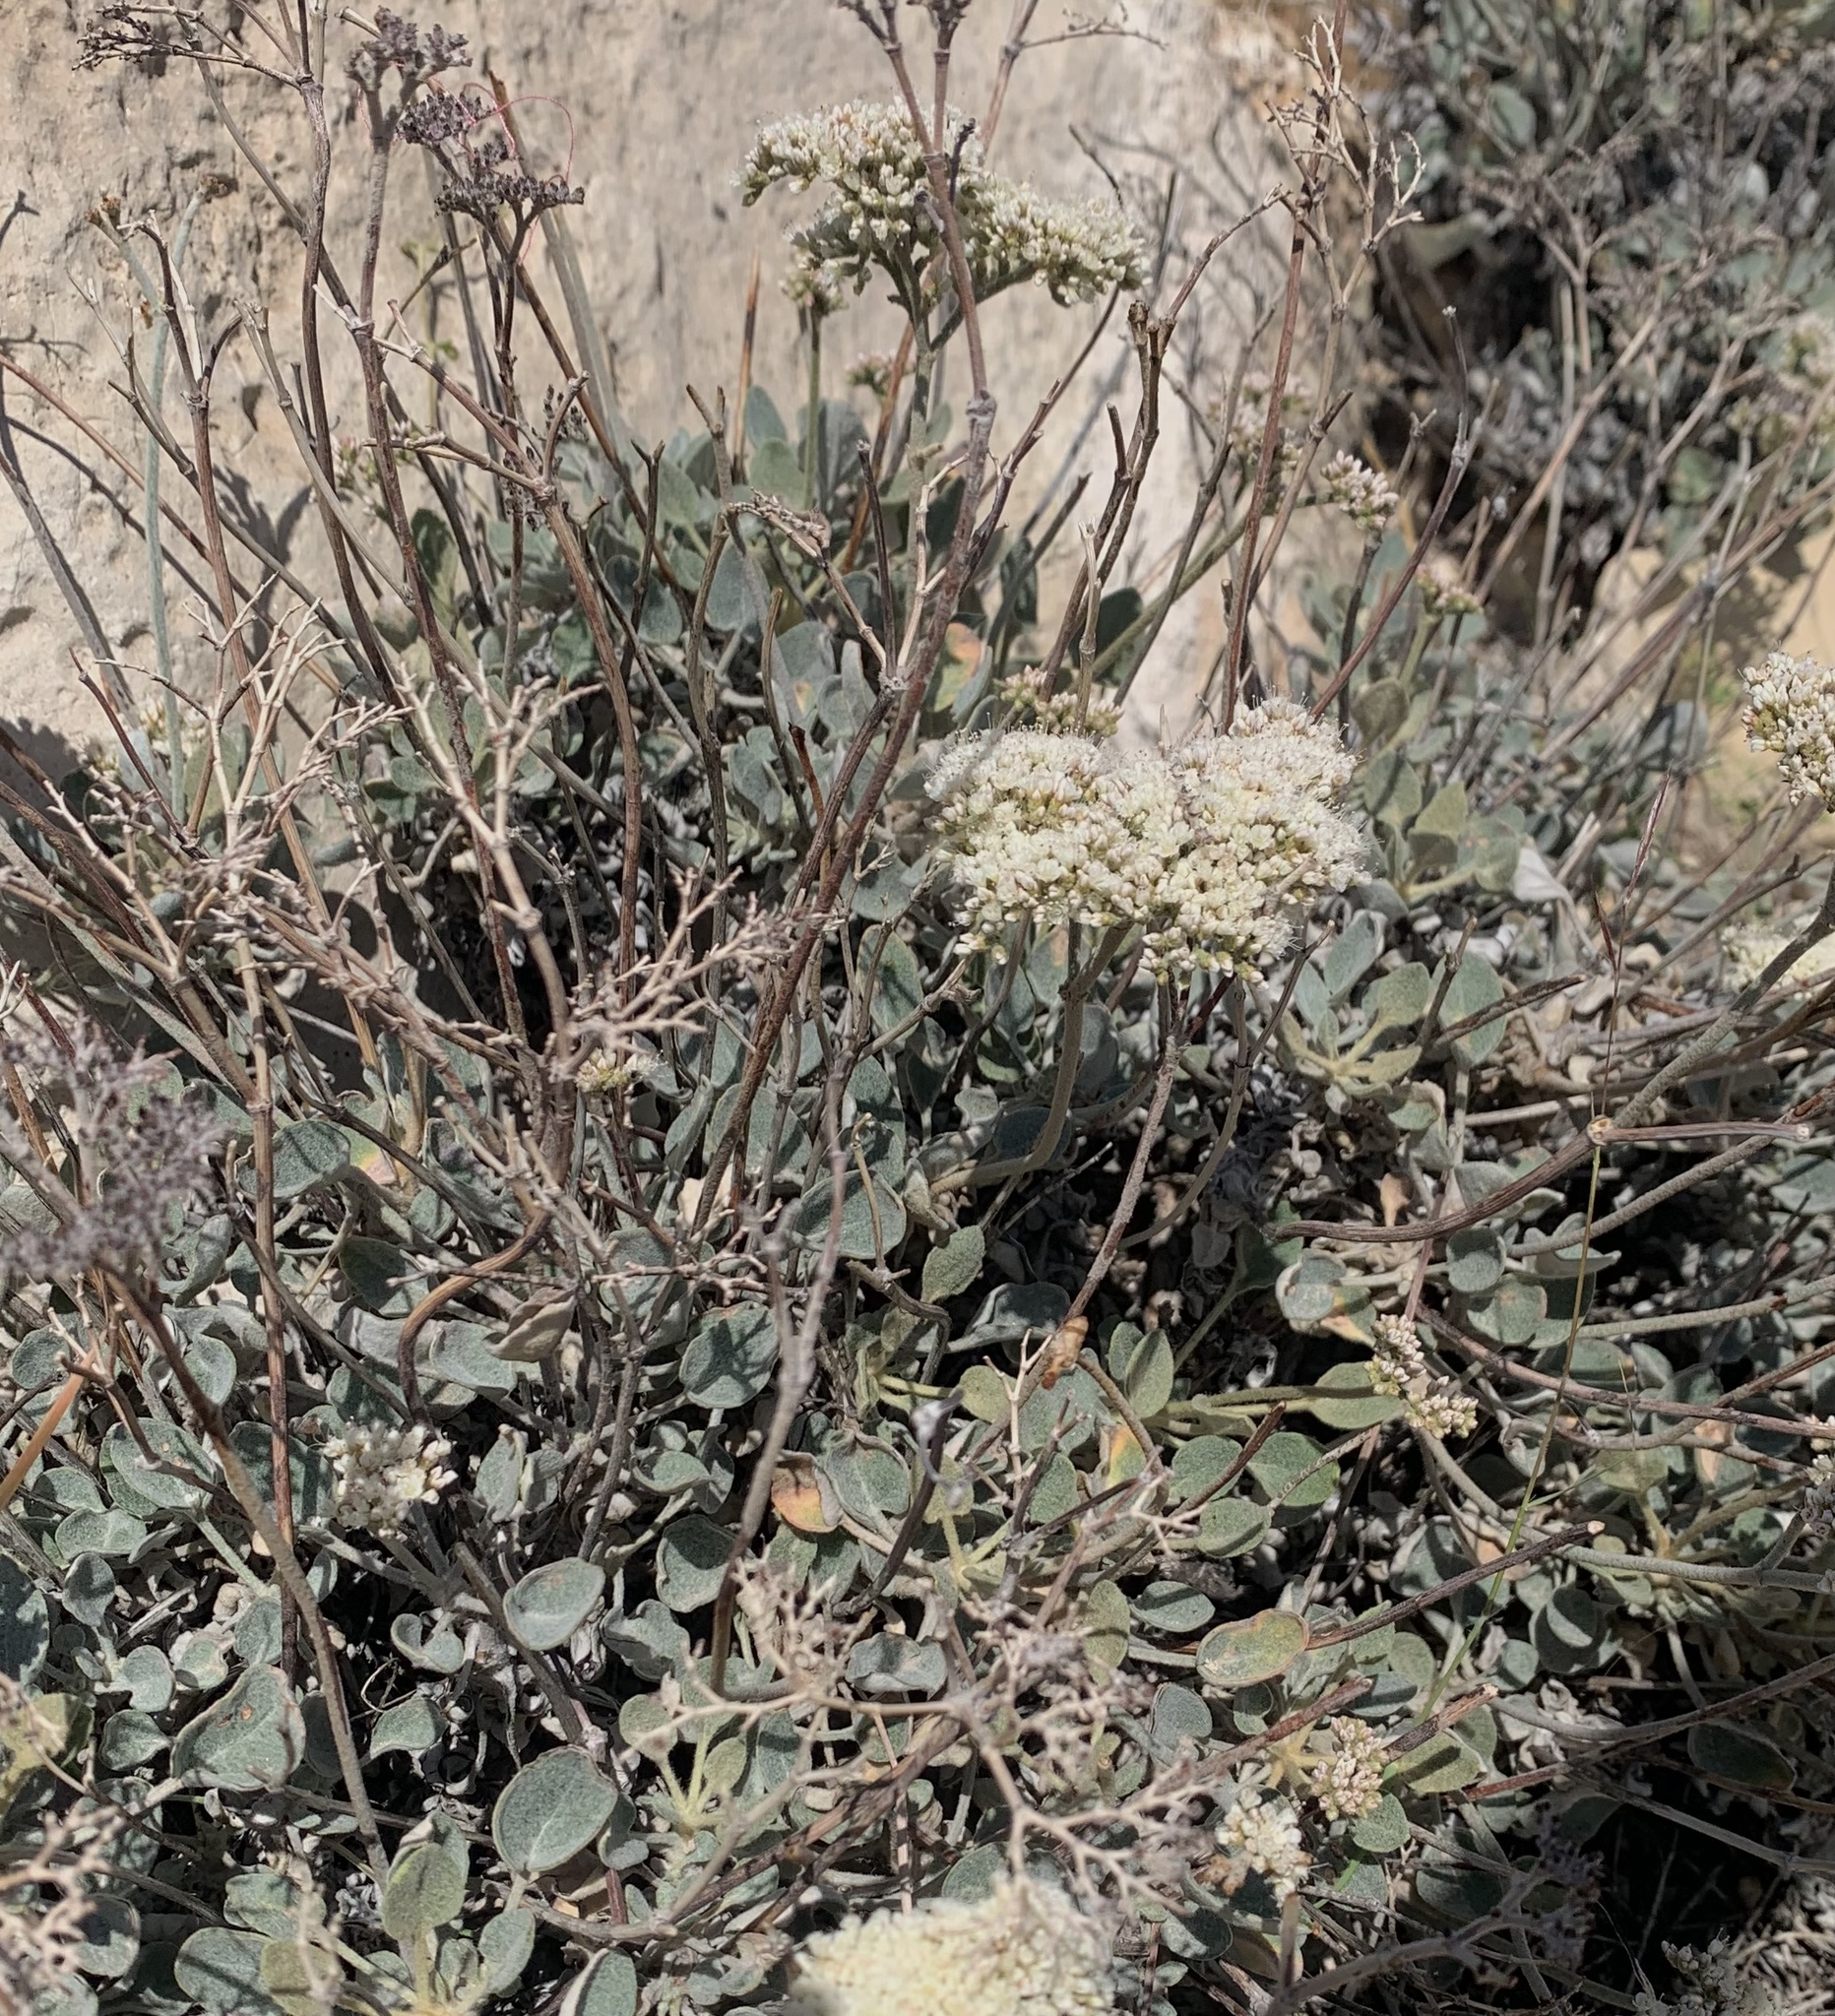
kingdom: Plantae
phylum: Tracheophyta
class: Magnoliopsida
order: Caryophyllales
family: Polygonaceae
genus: Eriogonum
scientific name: Eriogonum corymbosum
